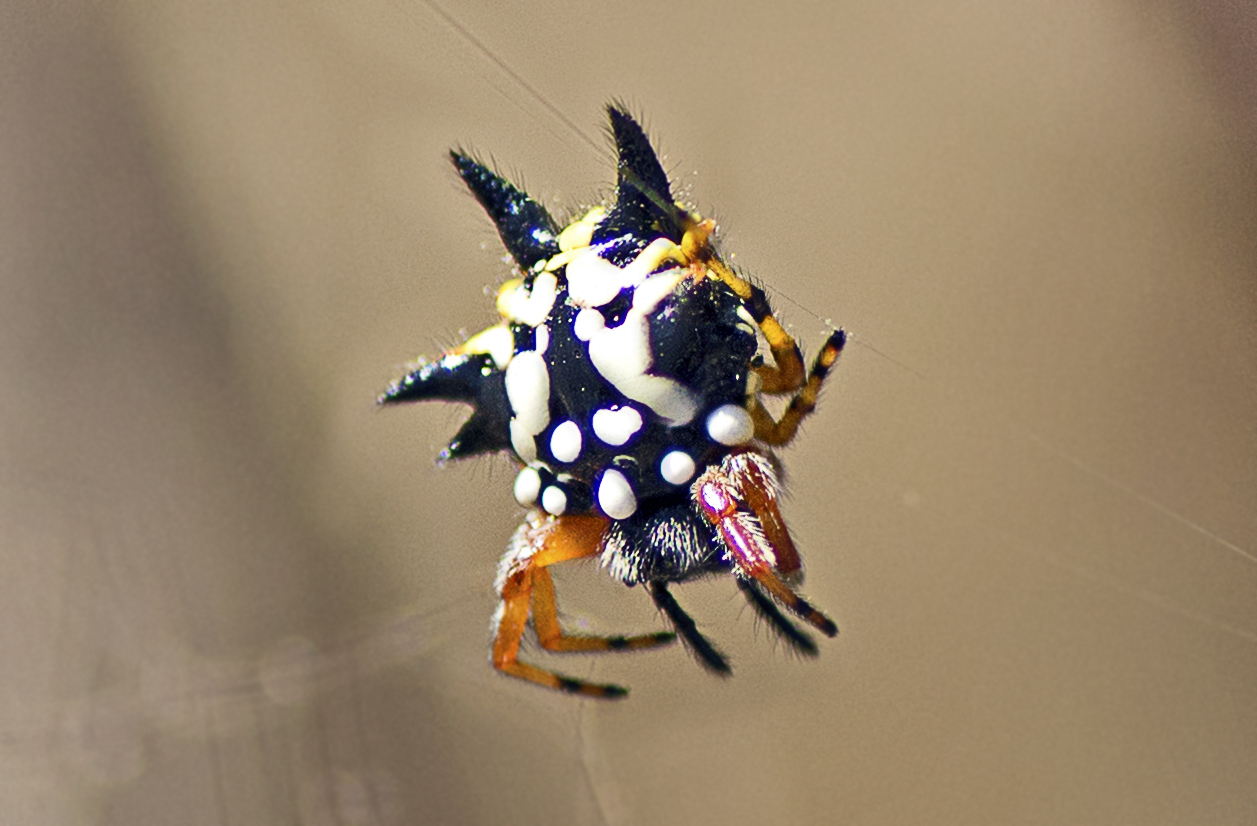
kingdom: Animalia
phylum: Arthropoda
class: Arachnida
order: Araneae
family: Araneidae
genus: Austracantha
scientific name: Austracantha minax
